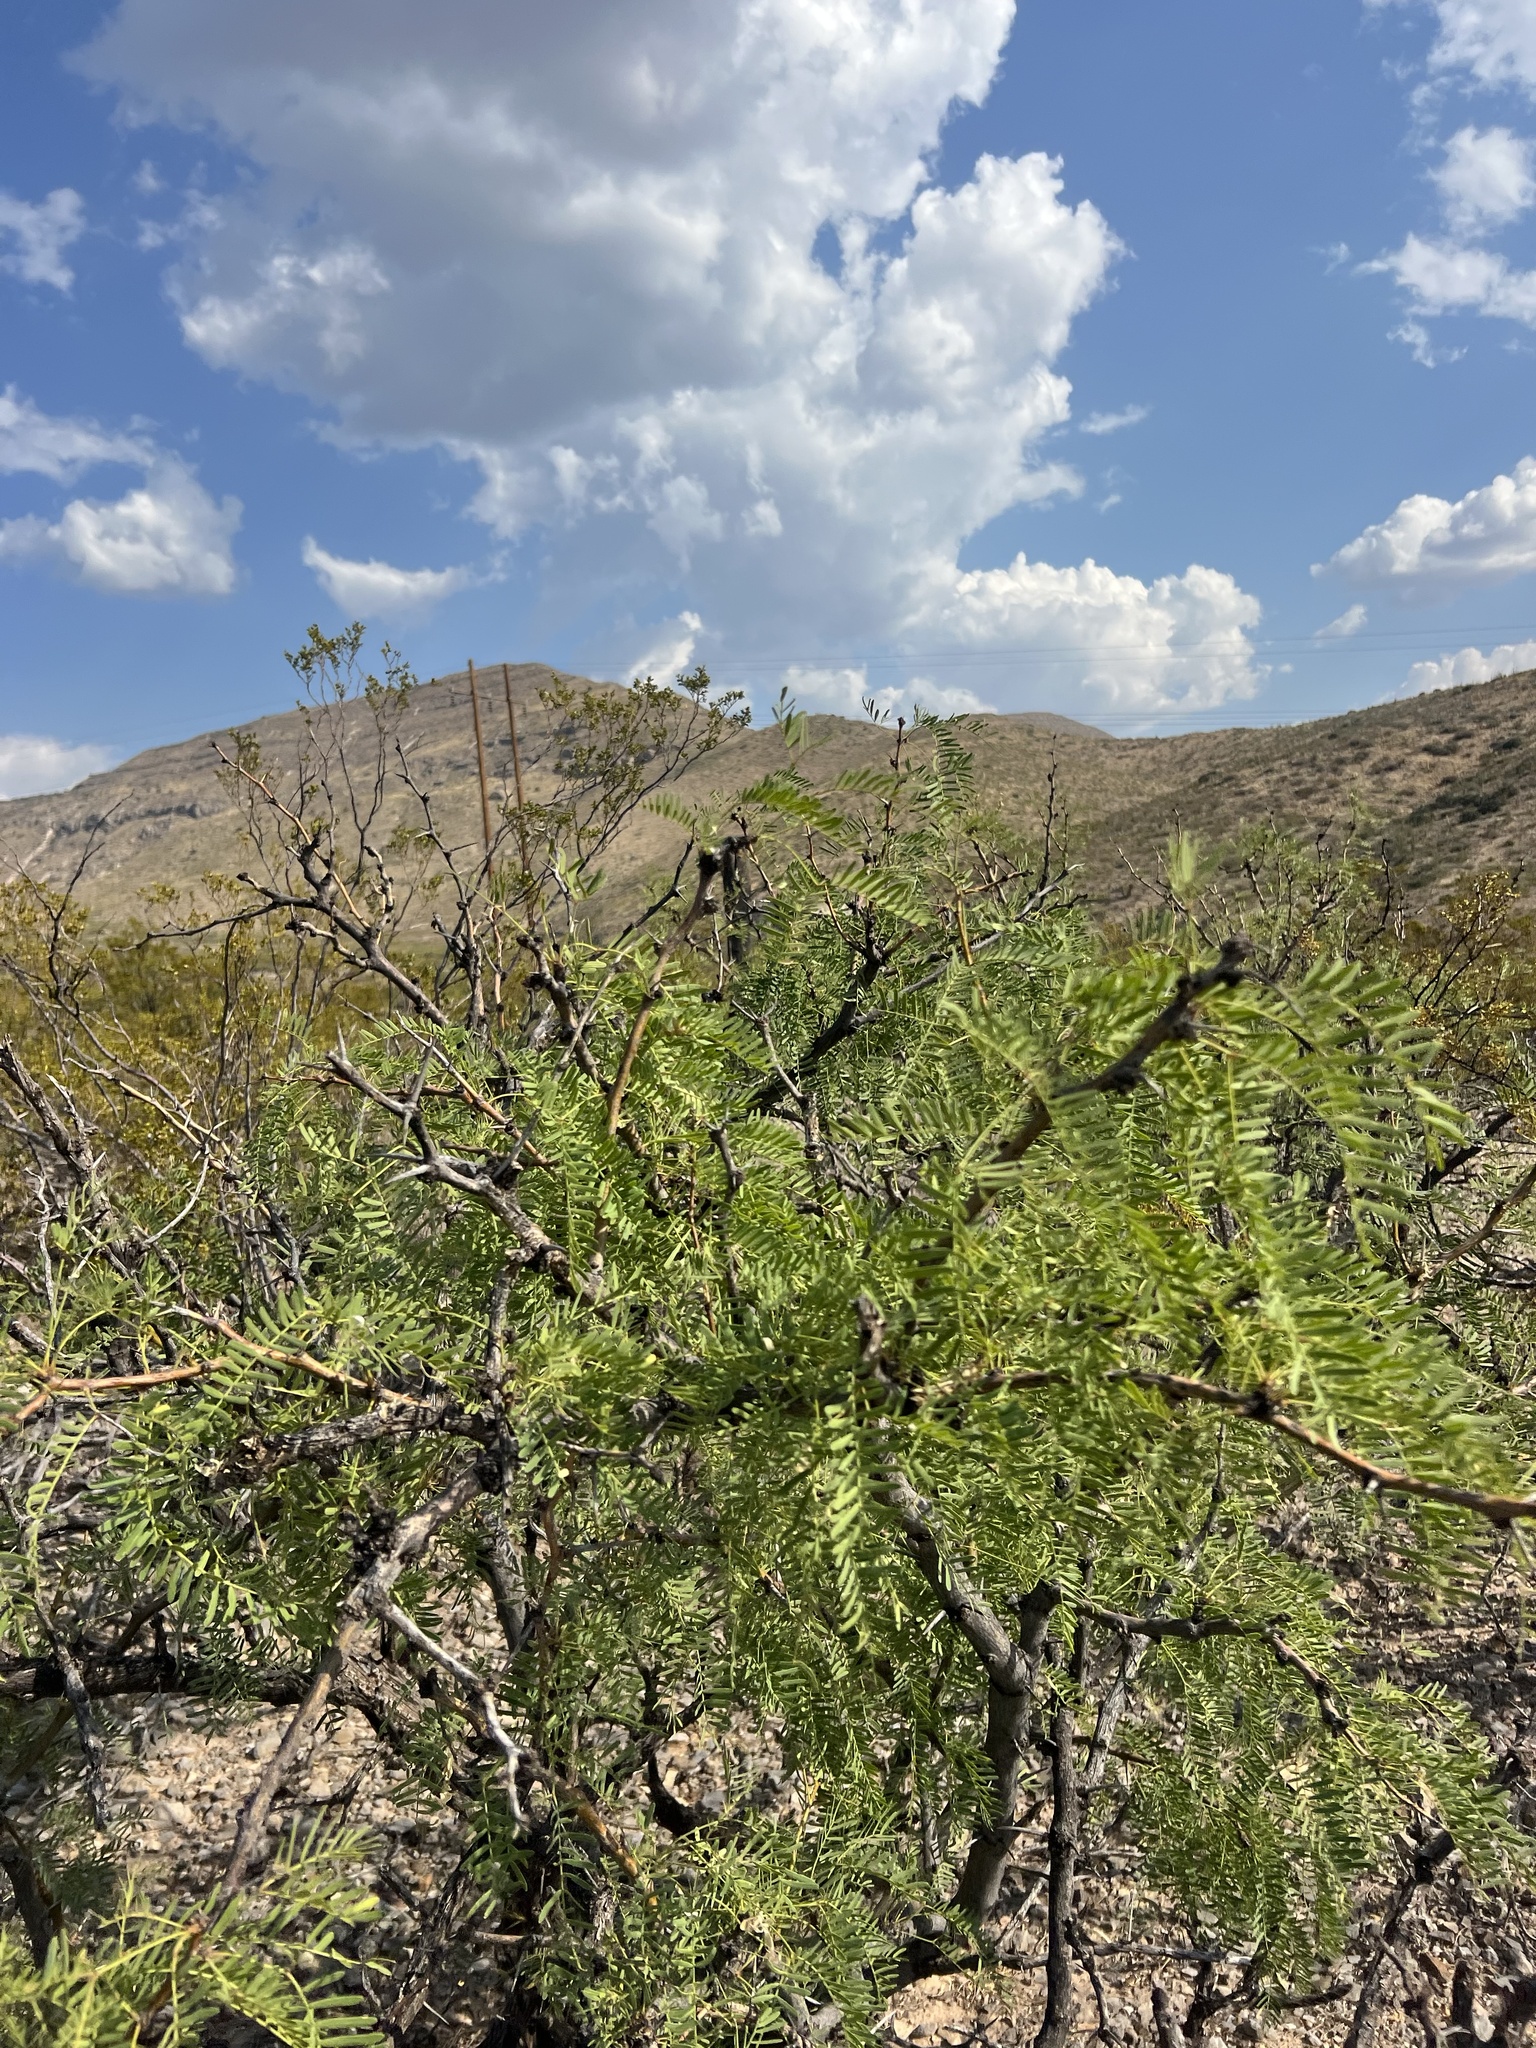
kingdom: Plantae
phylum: Tracheophyta
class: Magnoliopsida
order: Fabales
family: Fabaceae
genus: Prosopis
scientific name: Prosopis glandulosa
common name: Honey mesquite
